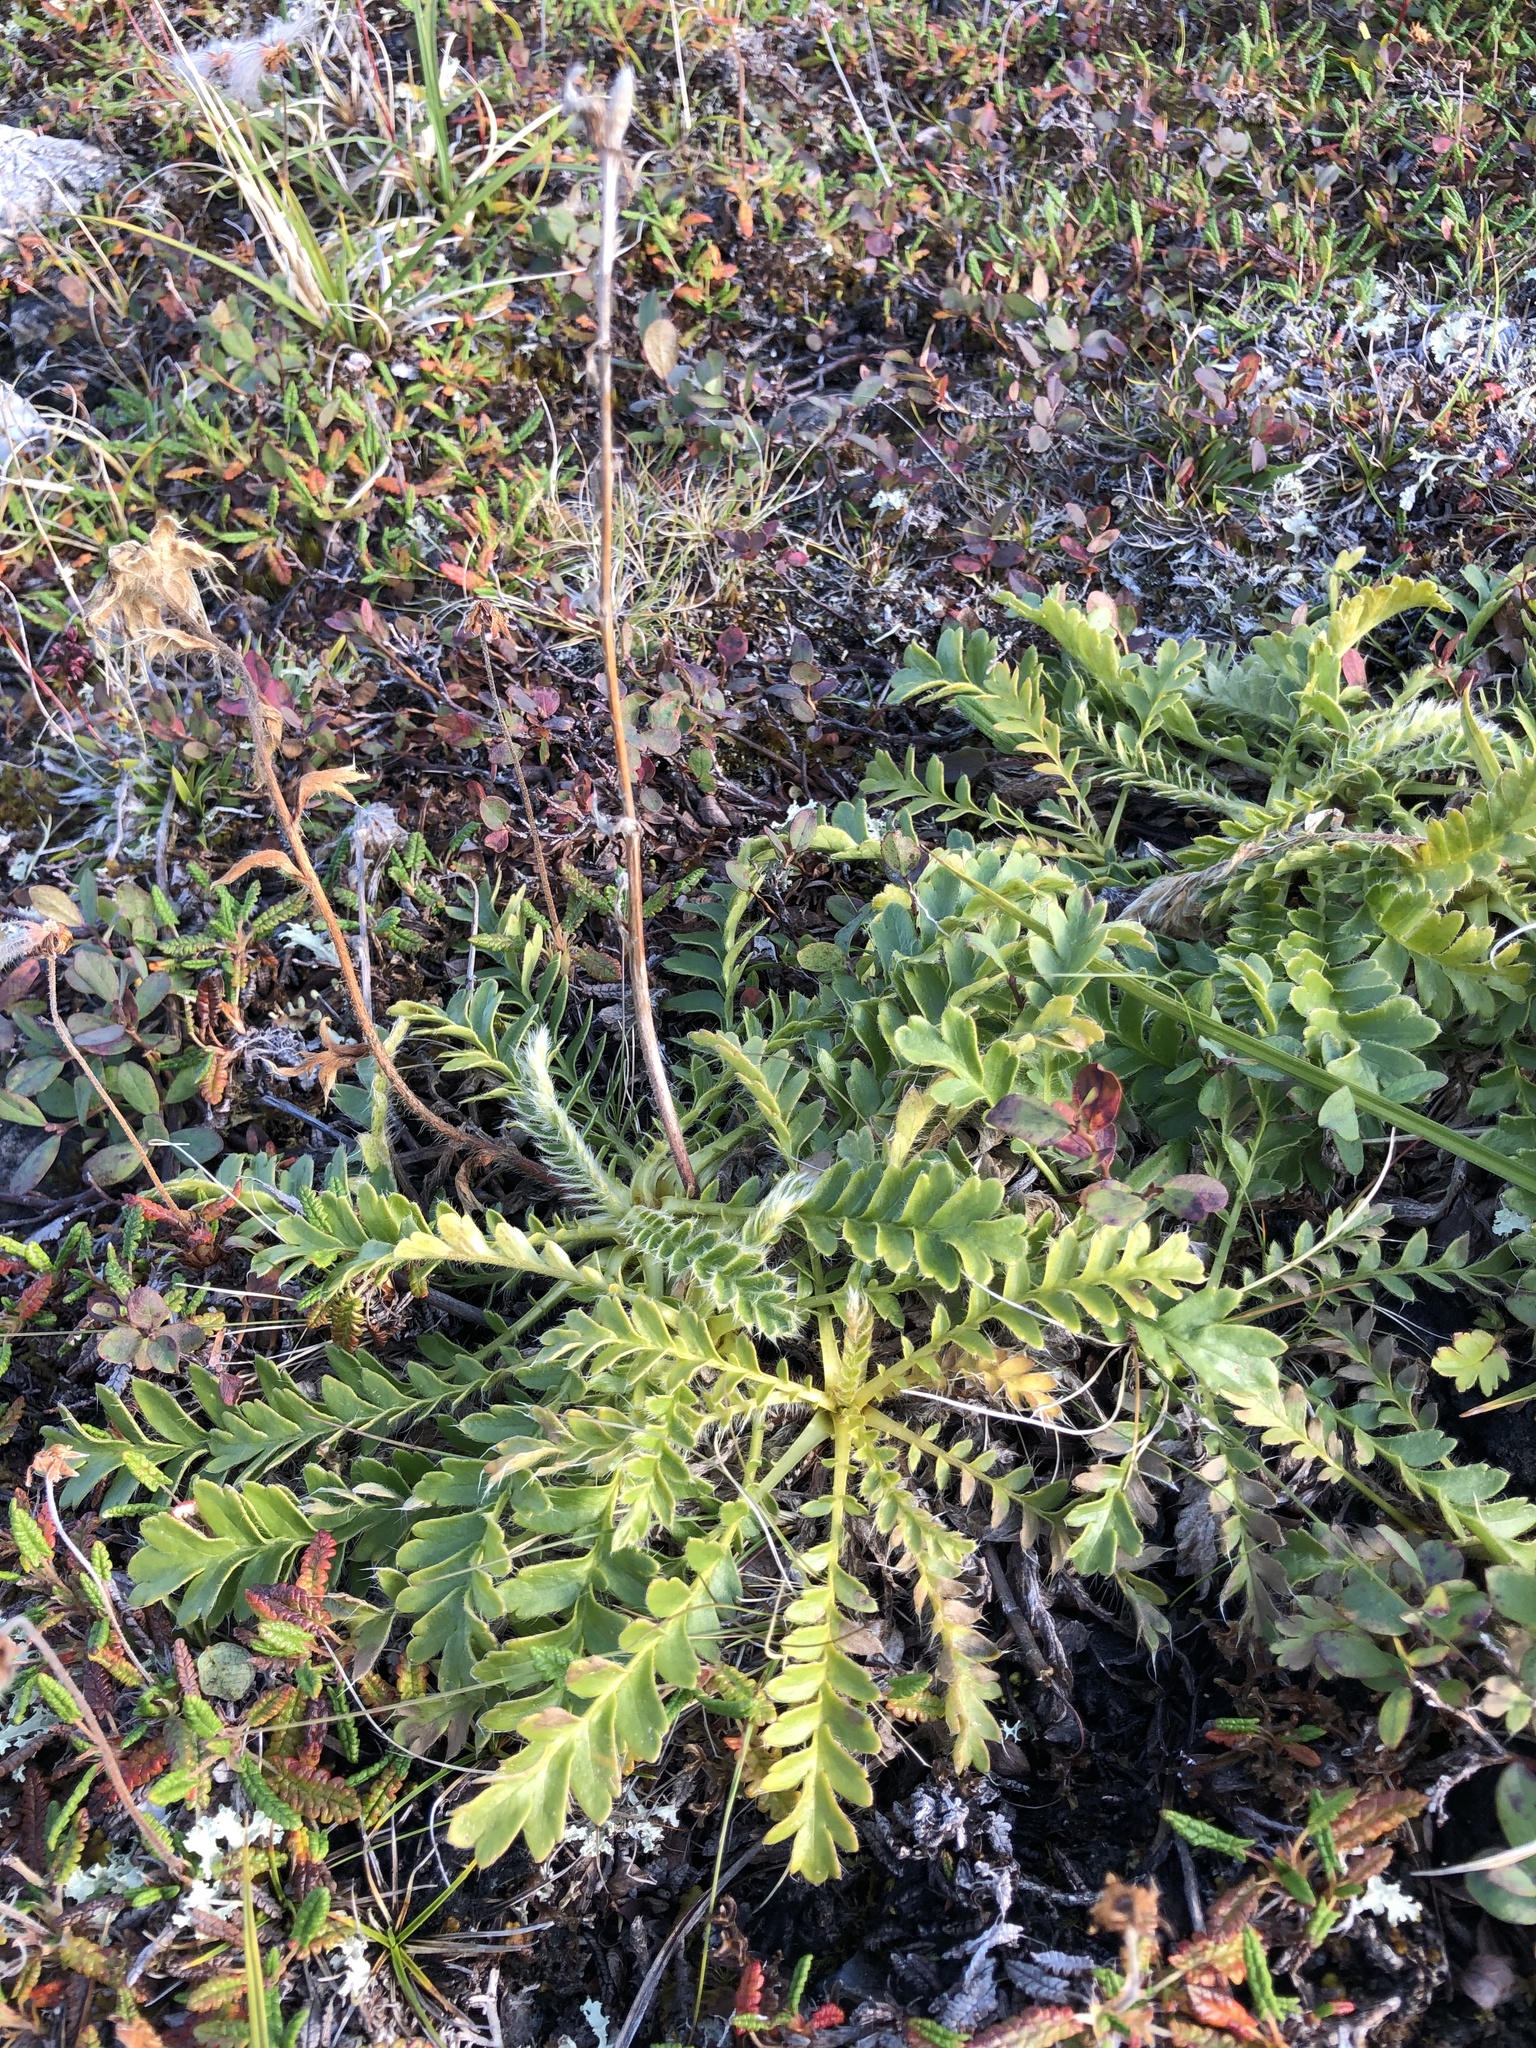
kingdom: Plantae
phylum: Tracheophyta
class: Magnoliopsida
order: Rosales
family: Rosaceae
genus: Geum
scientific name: Geum glaciale
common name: Glacier avens
